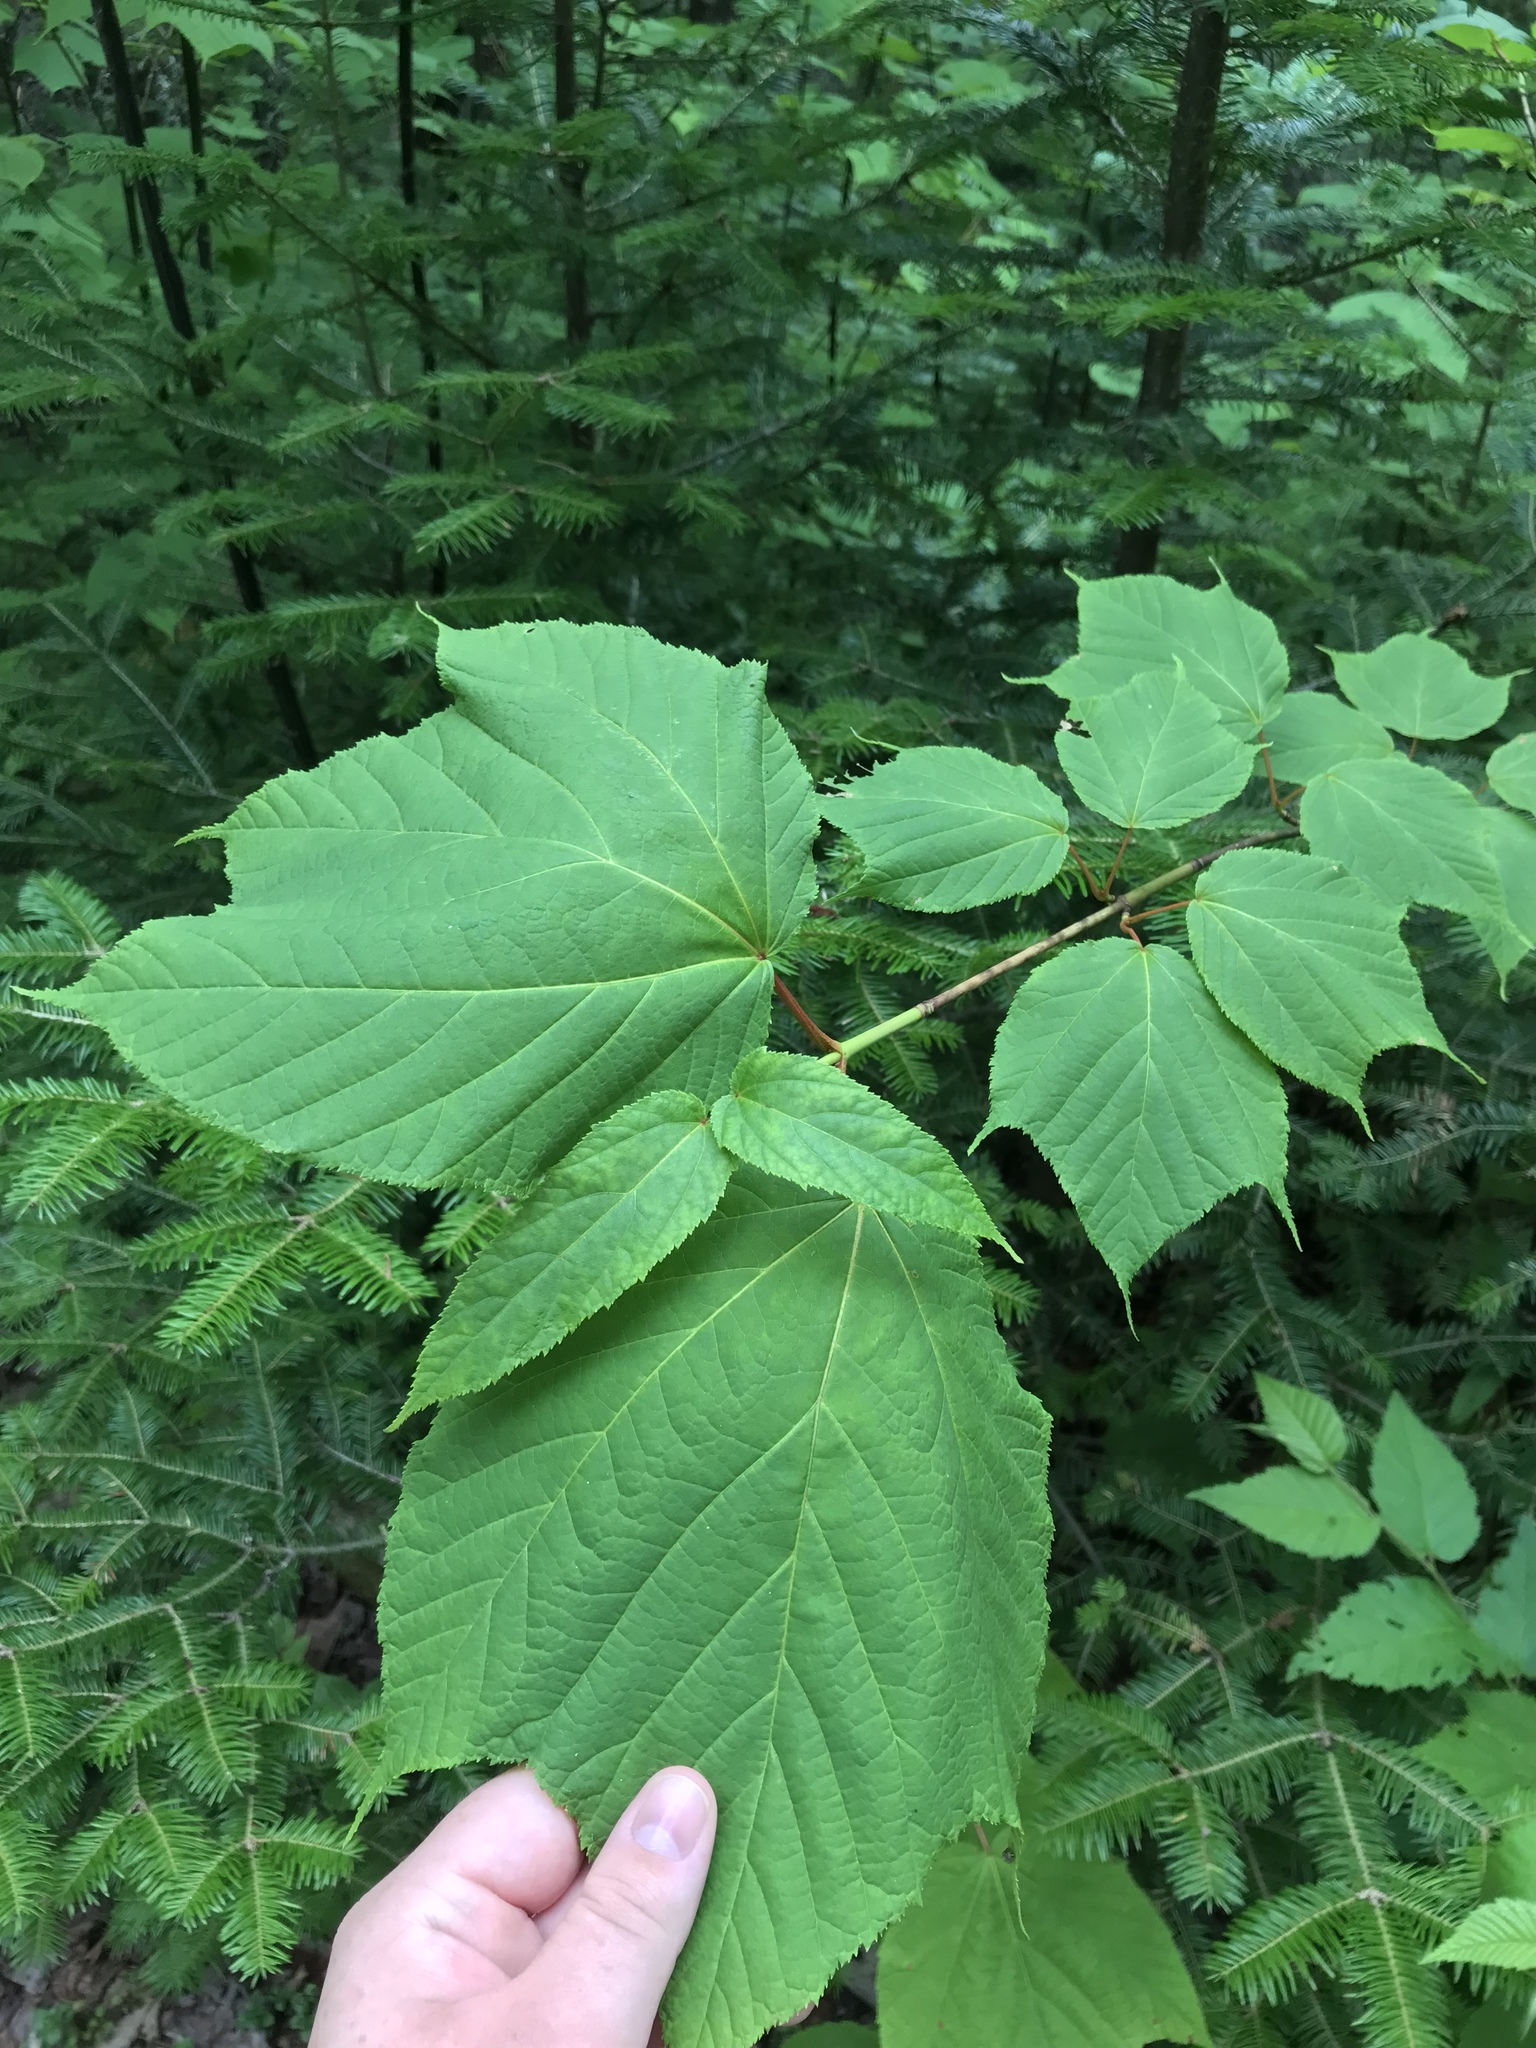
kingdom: Plantae
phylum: Tracheophyta
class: Magnoliopsida
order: Sapindales
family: Sapindaceae
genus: Acer
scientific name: Acer pensylvanicum
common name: Moosewood
